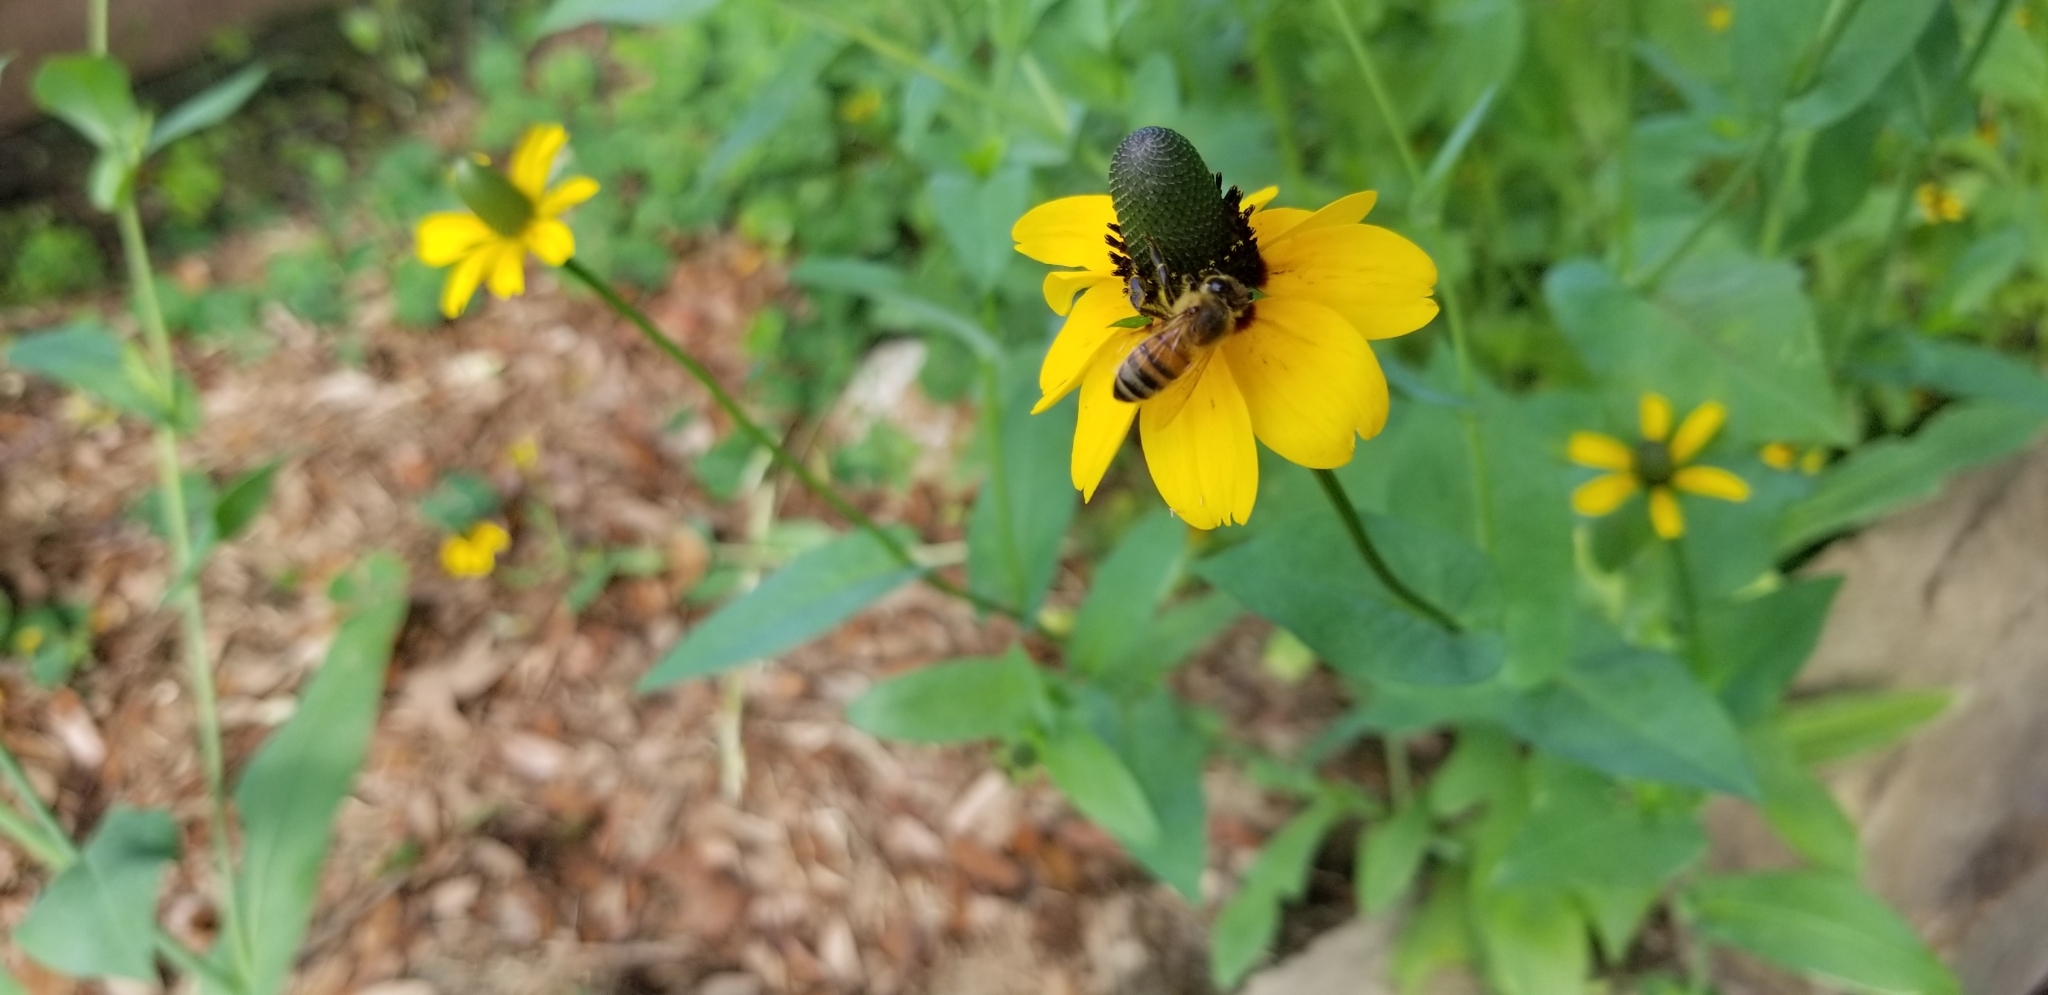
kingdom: Animalia
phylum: Arthropoda
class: Insecta
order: Hymenoptera
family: Apidae
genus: Apis
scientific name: Apis mellifera
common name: Honey bee
